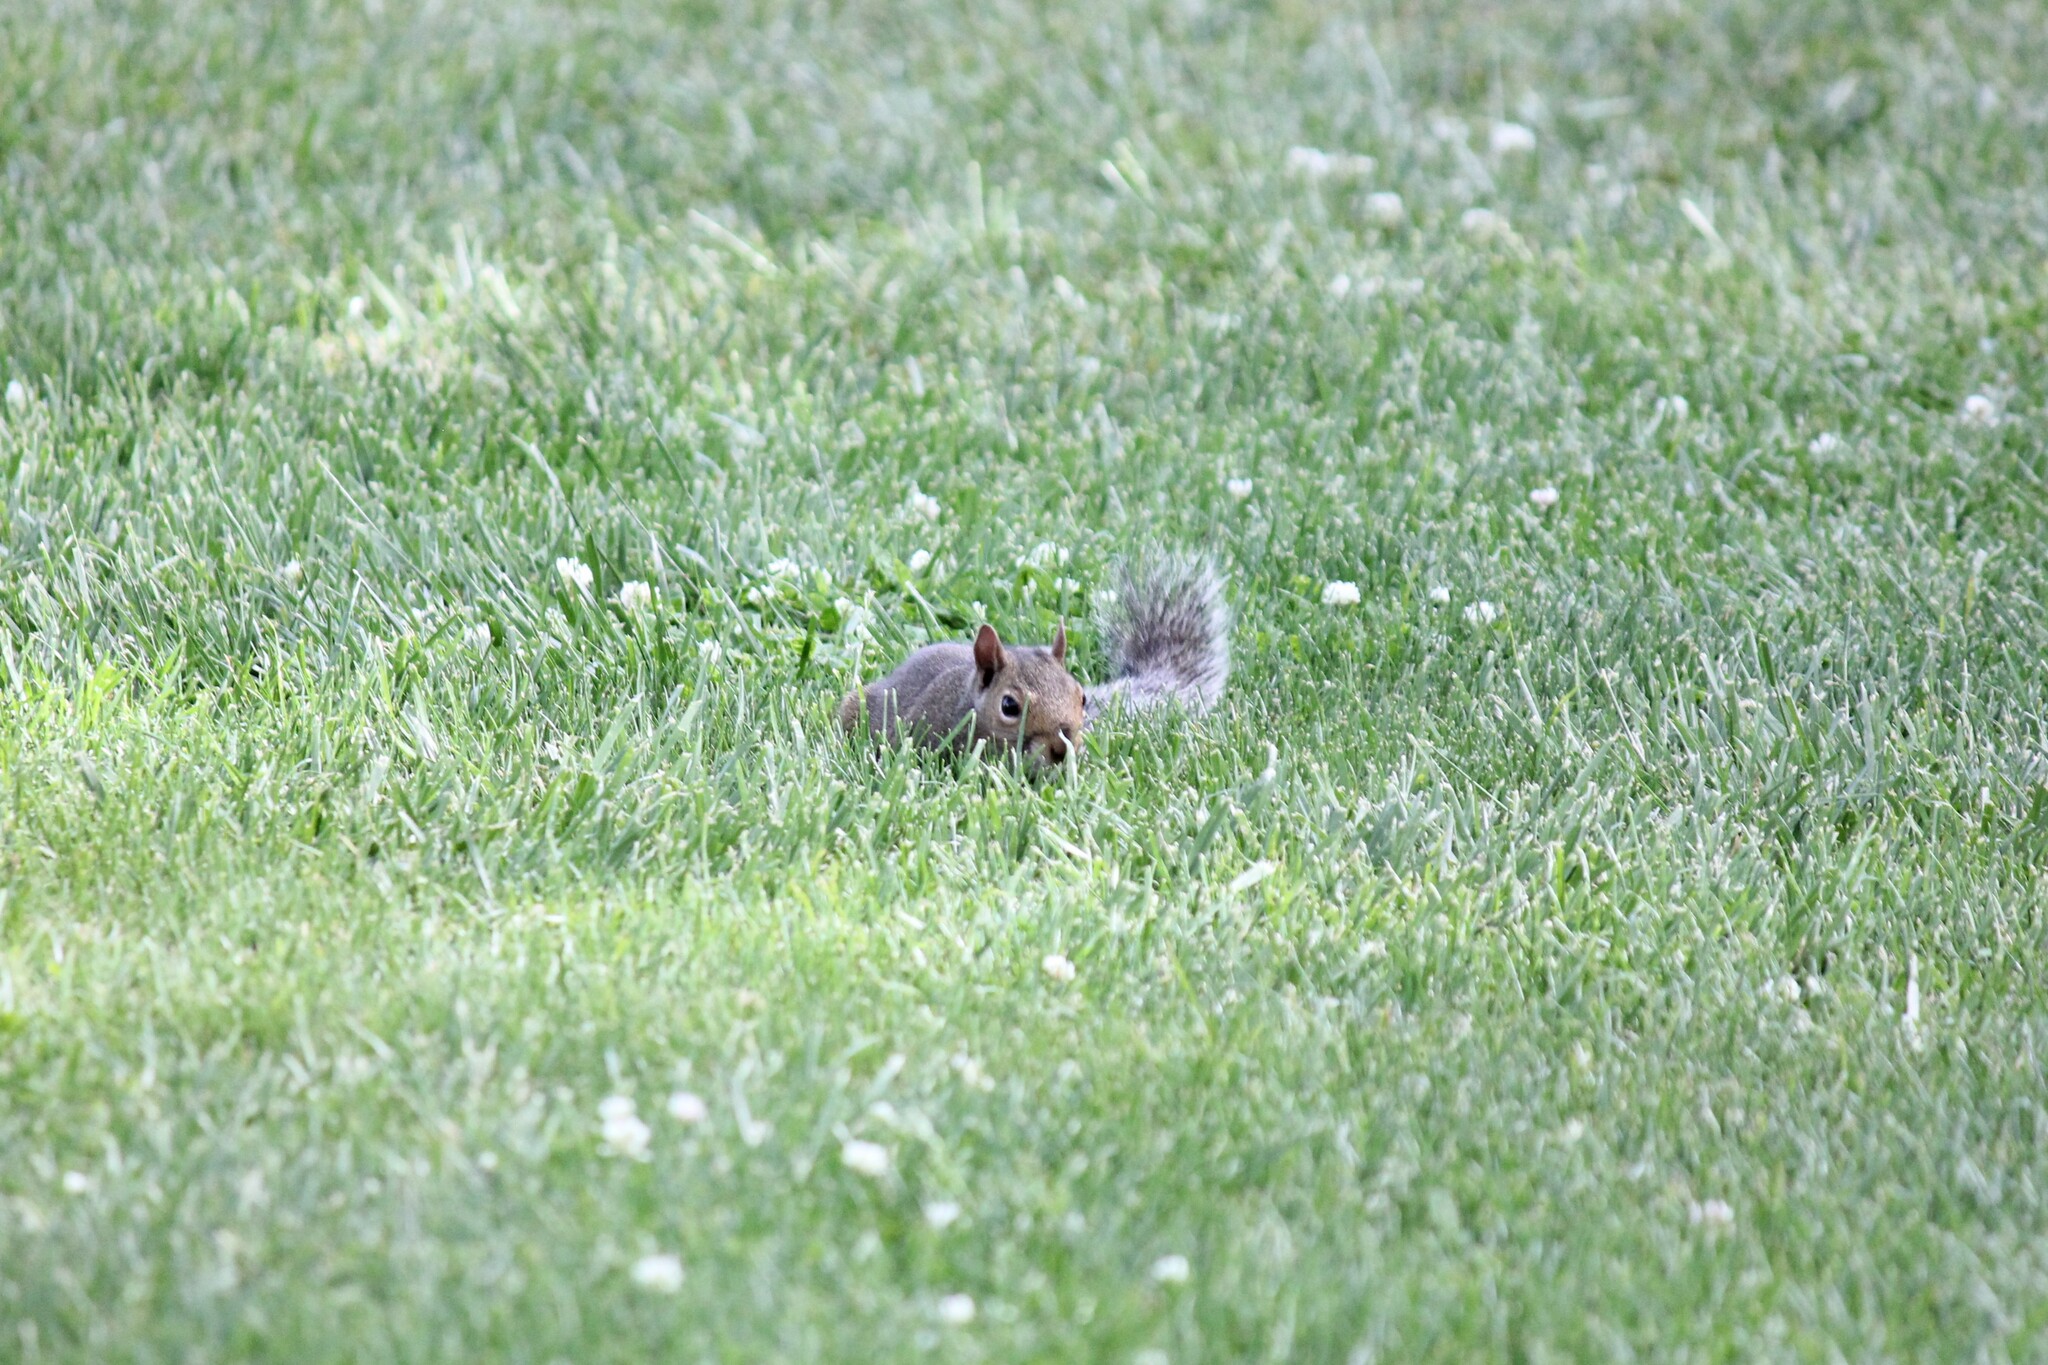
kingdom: Animalia
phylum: Chordata
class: Mammalia
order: Rodentia
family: Sciuridae
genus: Sciurus
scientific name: Sciurus carolinensis
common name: Eastern gray squirrel
